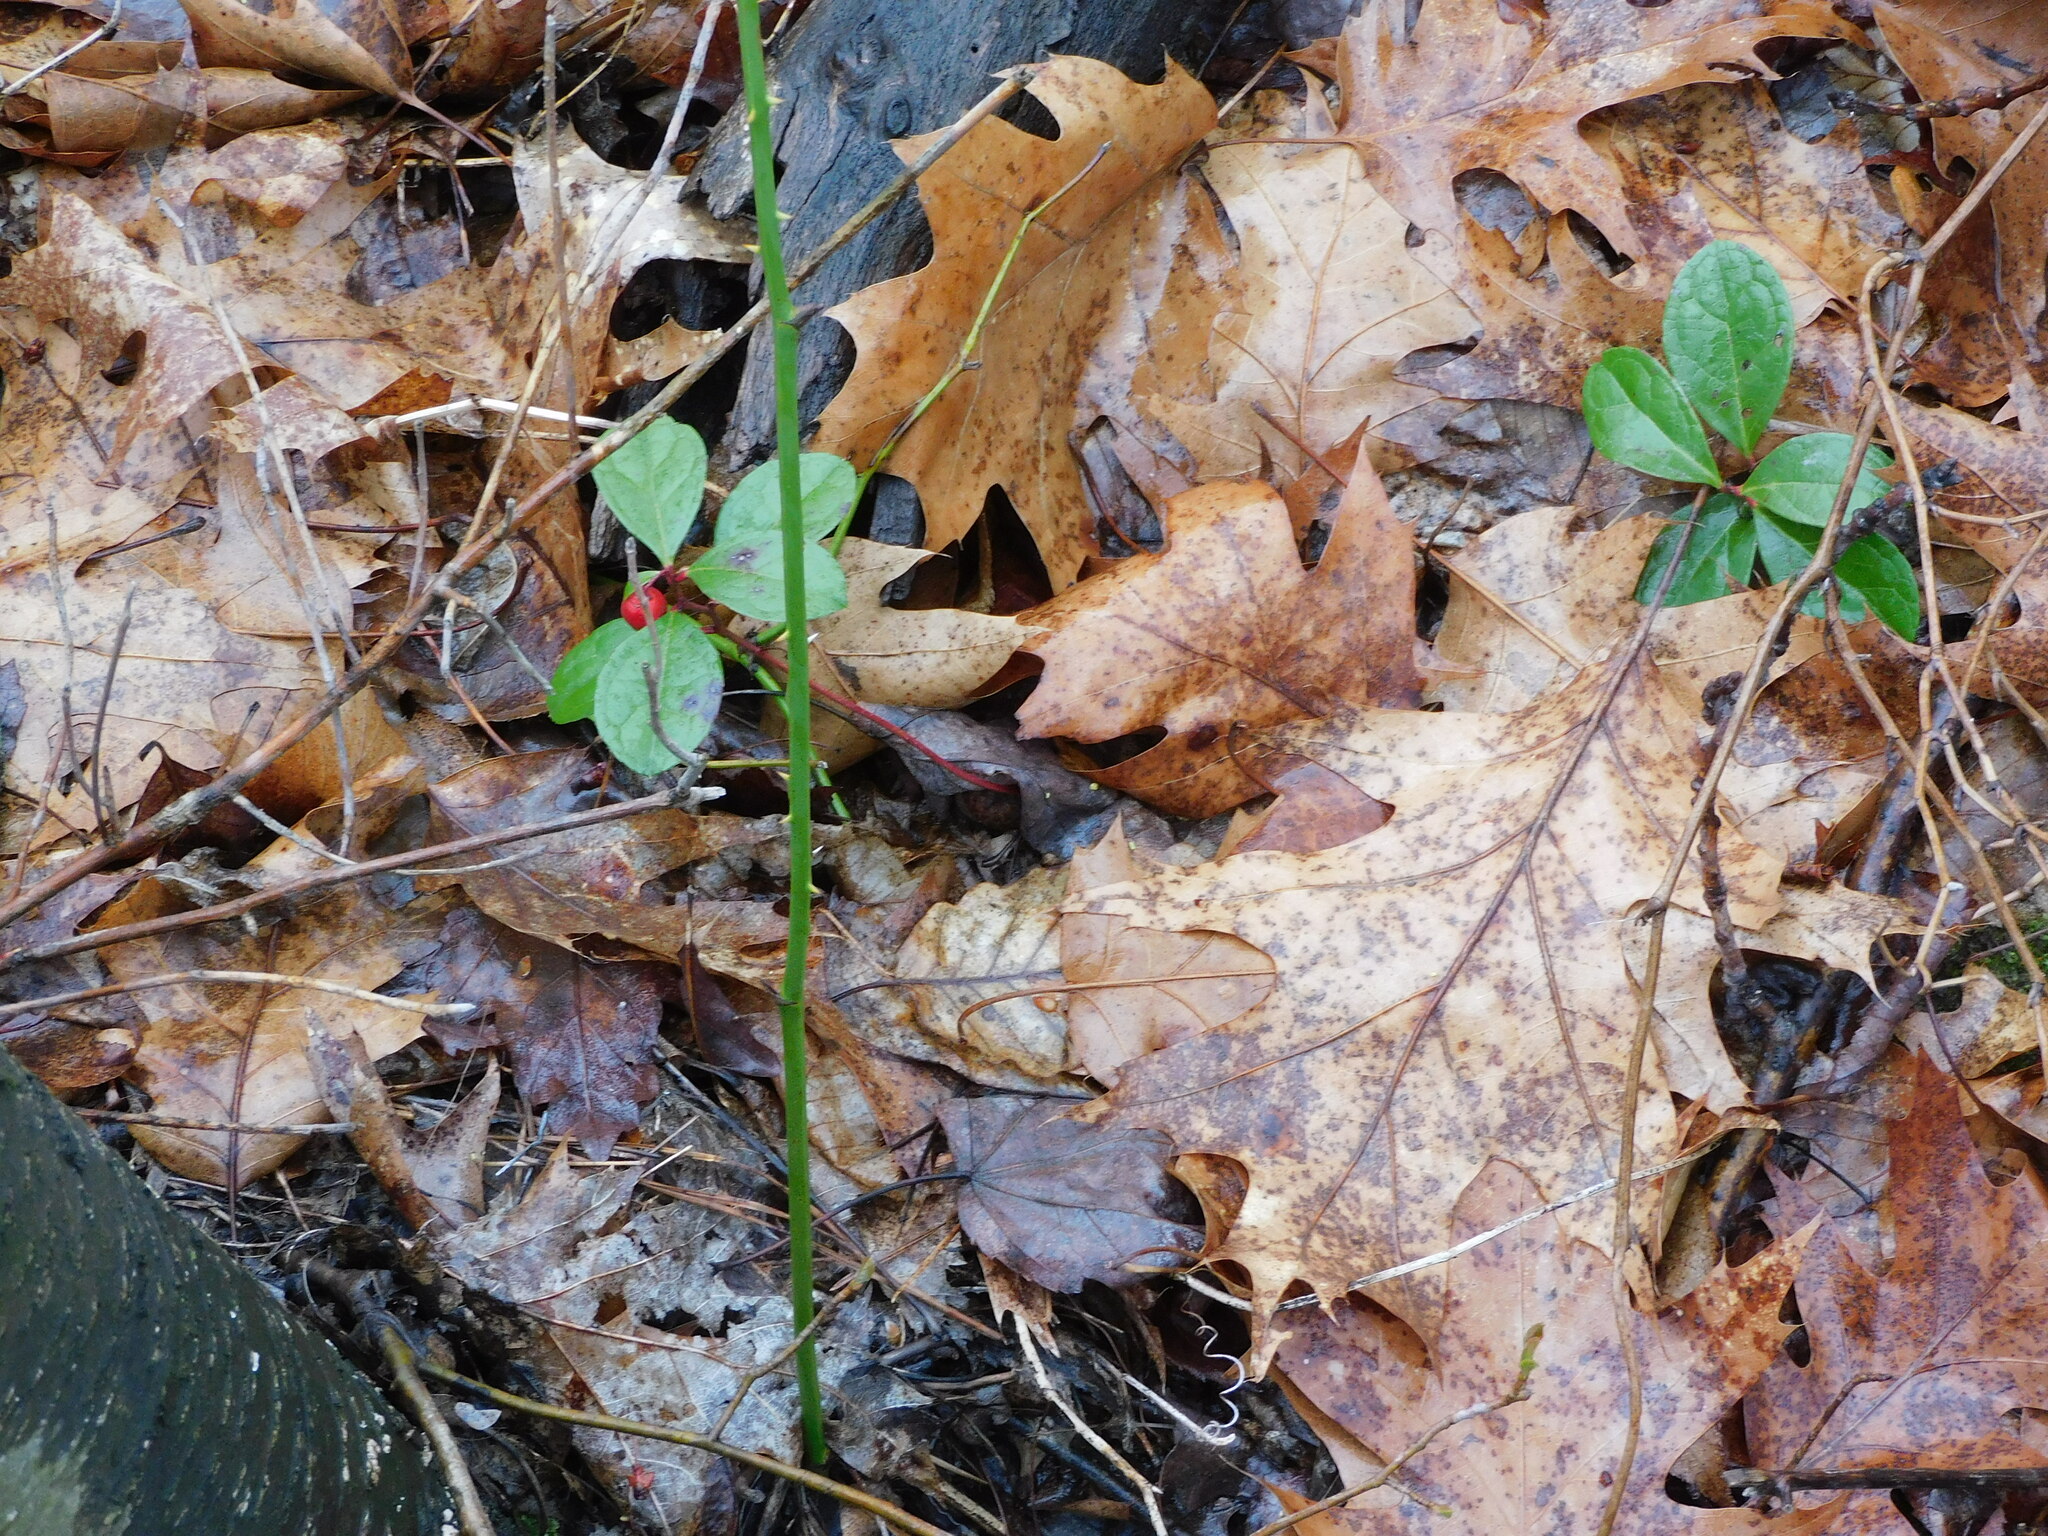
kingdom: Plantae
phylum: Tracheophyta
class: Magnoliopsida
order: Ericales
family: Ericaceae
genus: Gaultheria
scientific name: Gaultheria procumbens
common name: Checkerberry
